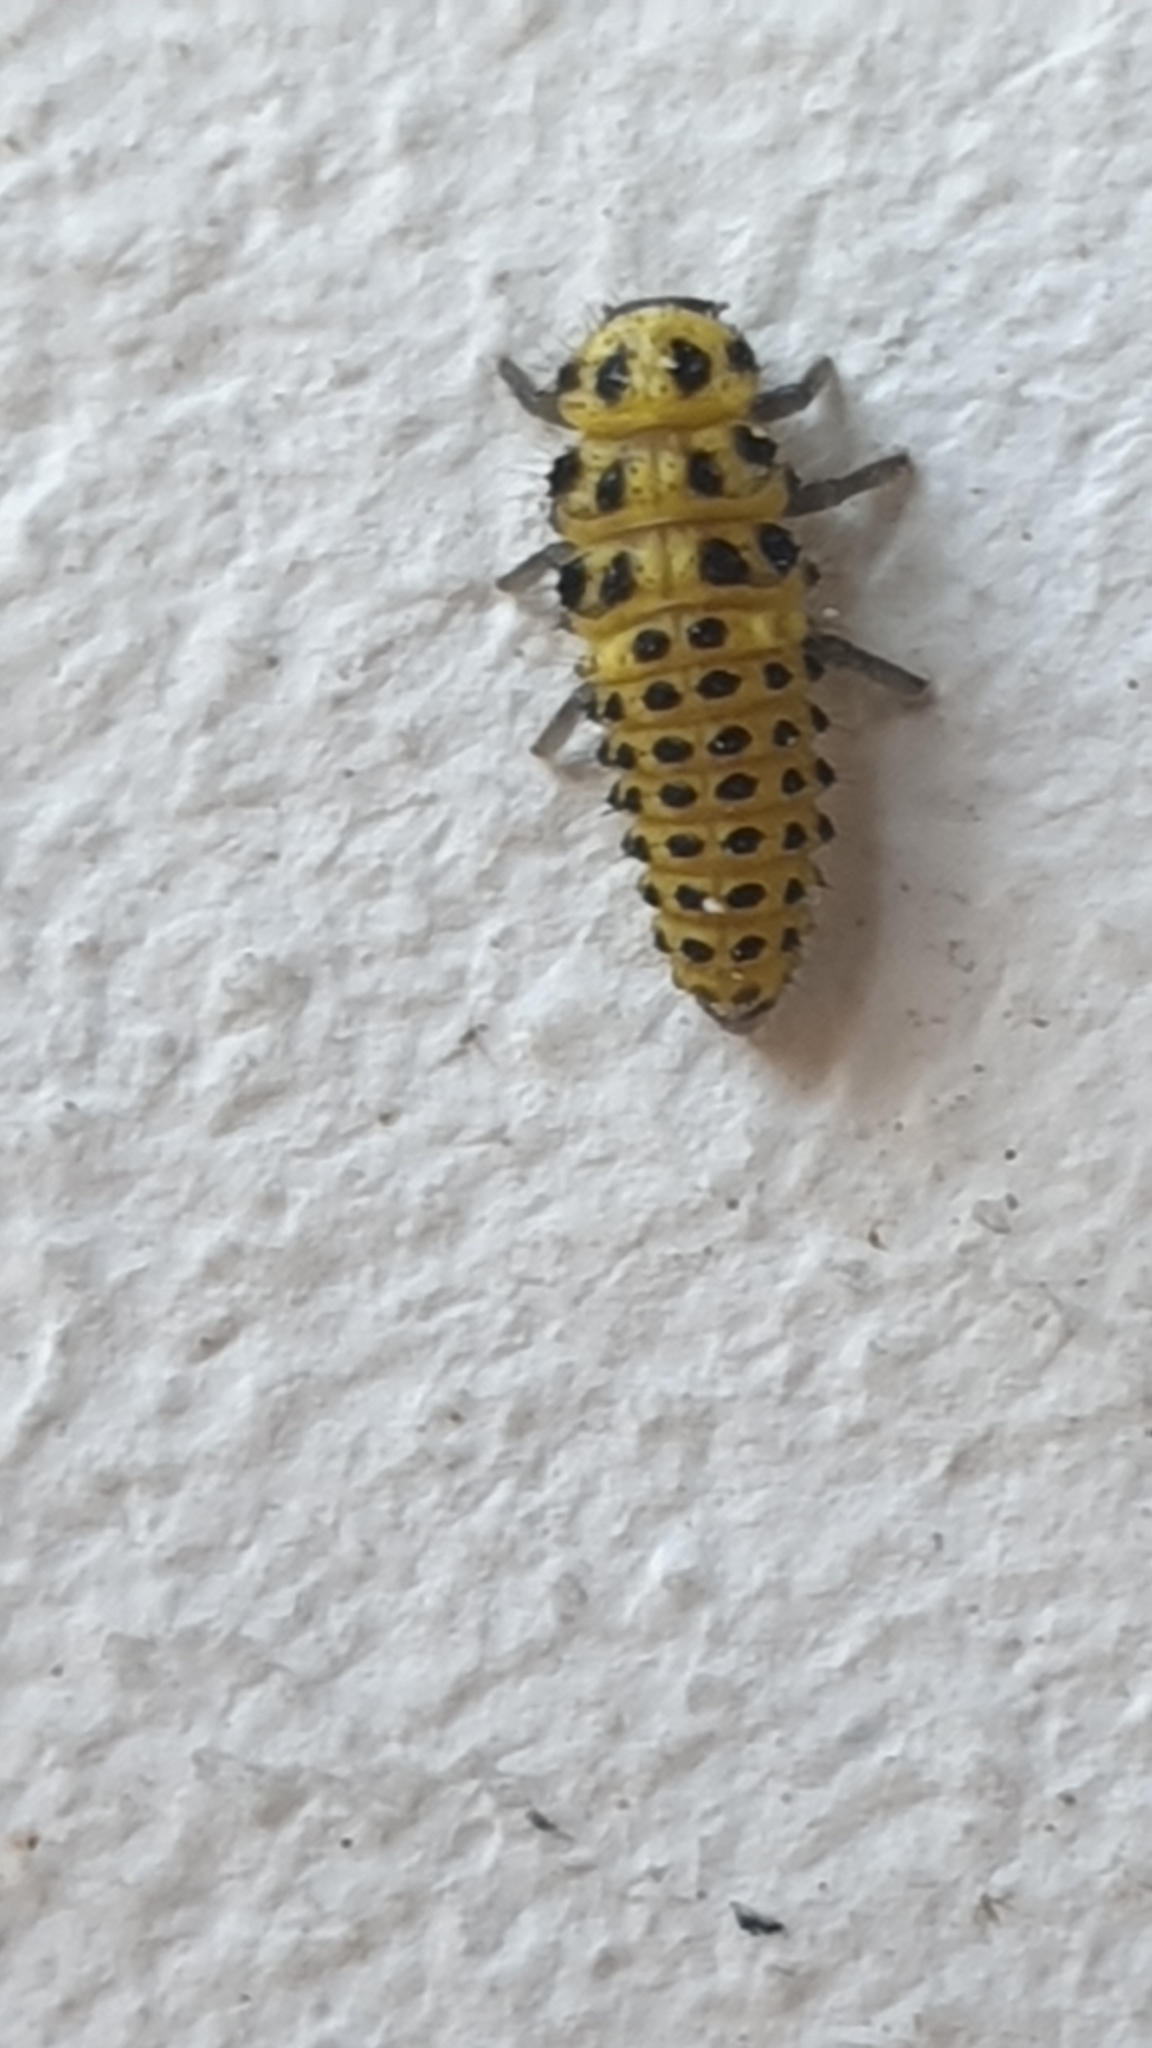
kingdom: Animalia
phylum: Arthropoda
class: Insecta
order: Coleoptera
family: Coccinellidae
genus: Psyllobora
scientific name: Psyllobora vigintiduopunctata
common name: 22-spot ladybird
